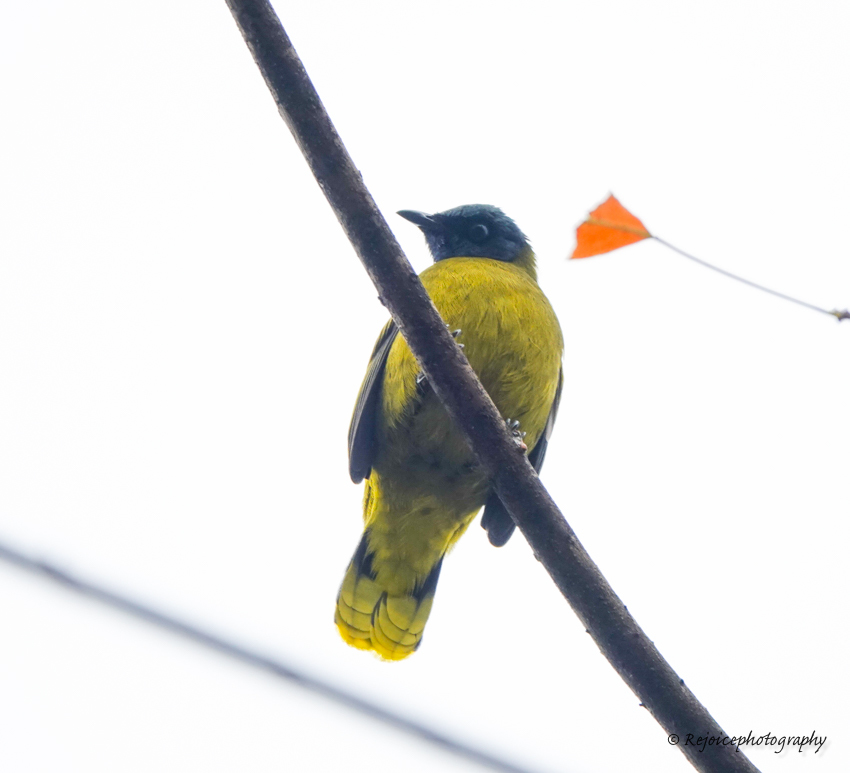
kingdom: Animalia
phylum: Chordata
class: Aves
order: Passeriformes
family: Pycnonotidae
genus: Microtarsus
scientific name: Microtarsus
